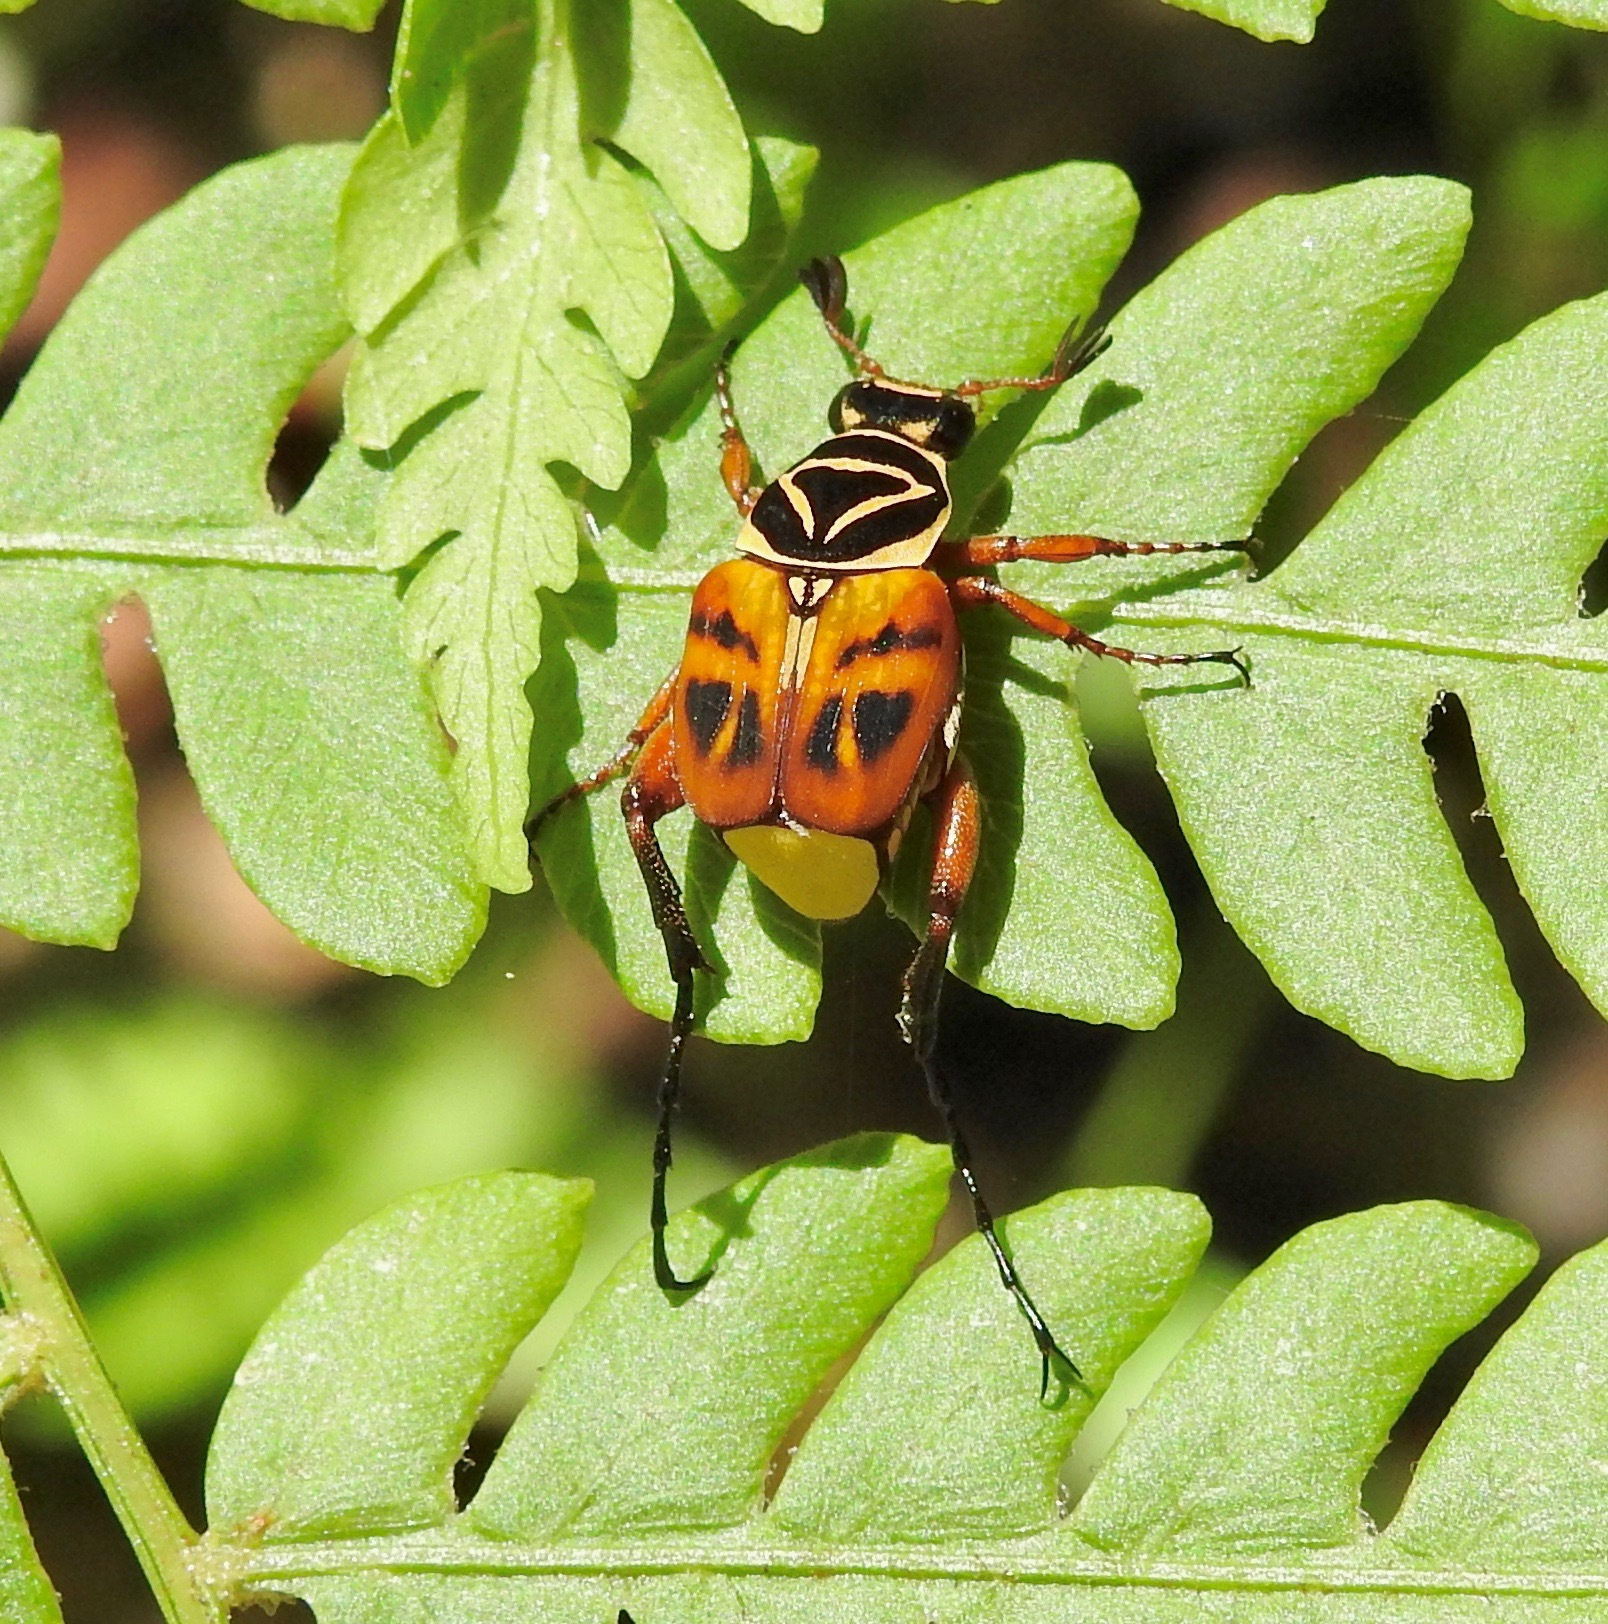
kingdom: Animalia
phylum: Arthropoda
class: Insecta
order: Coleoptera
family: Scarabaeidae
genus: Trigonopeltastes
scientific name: Trigonopeltastes delta
